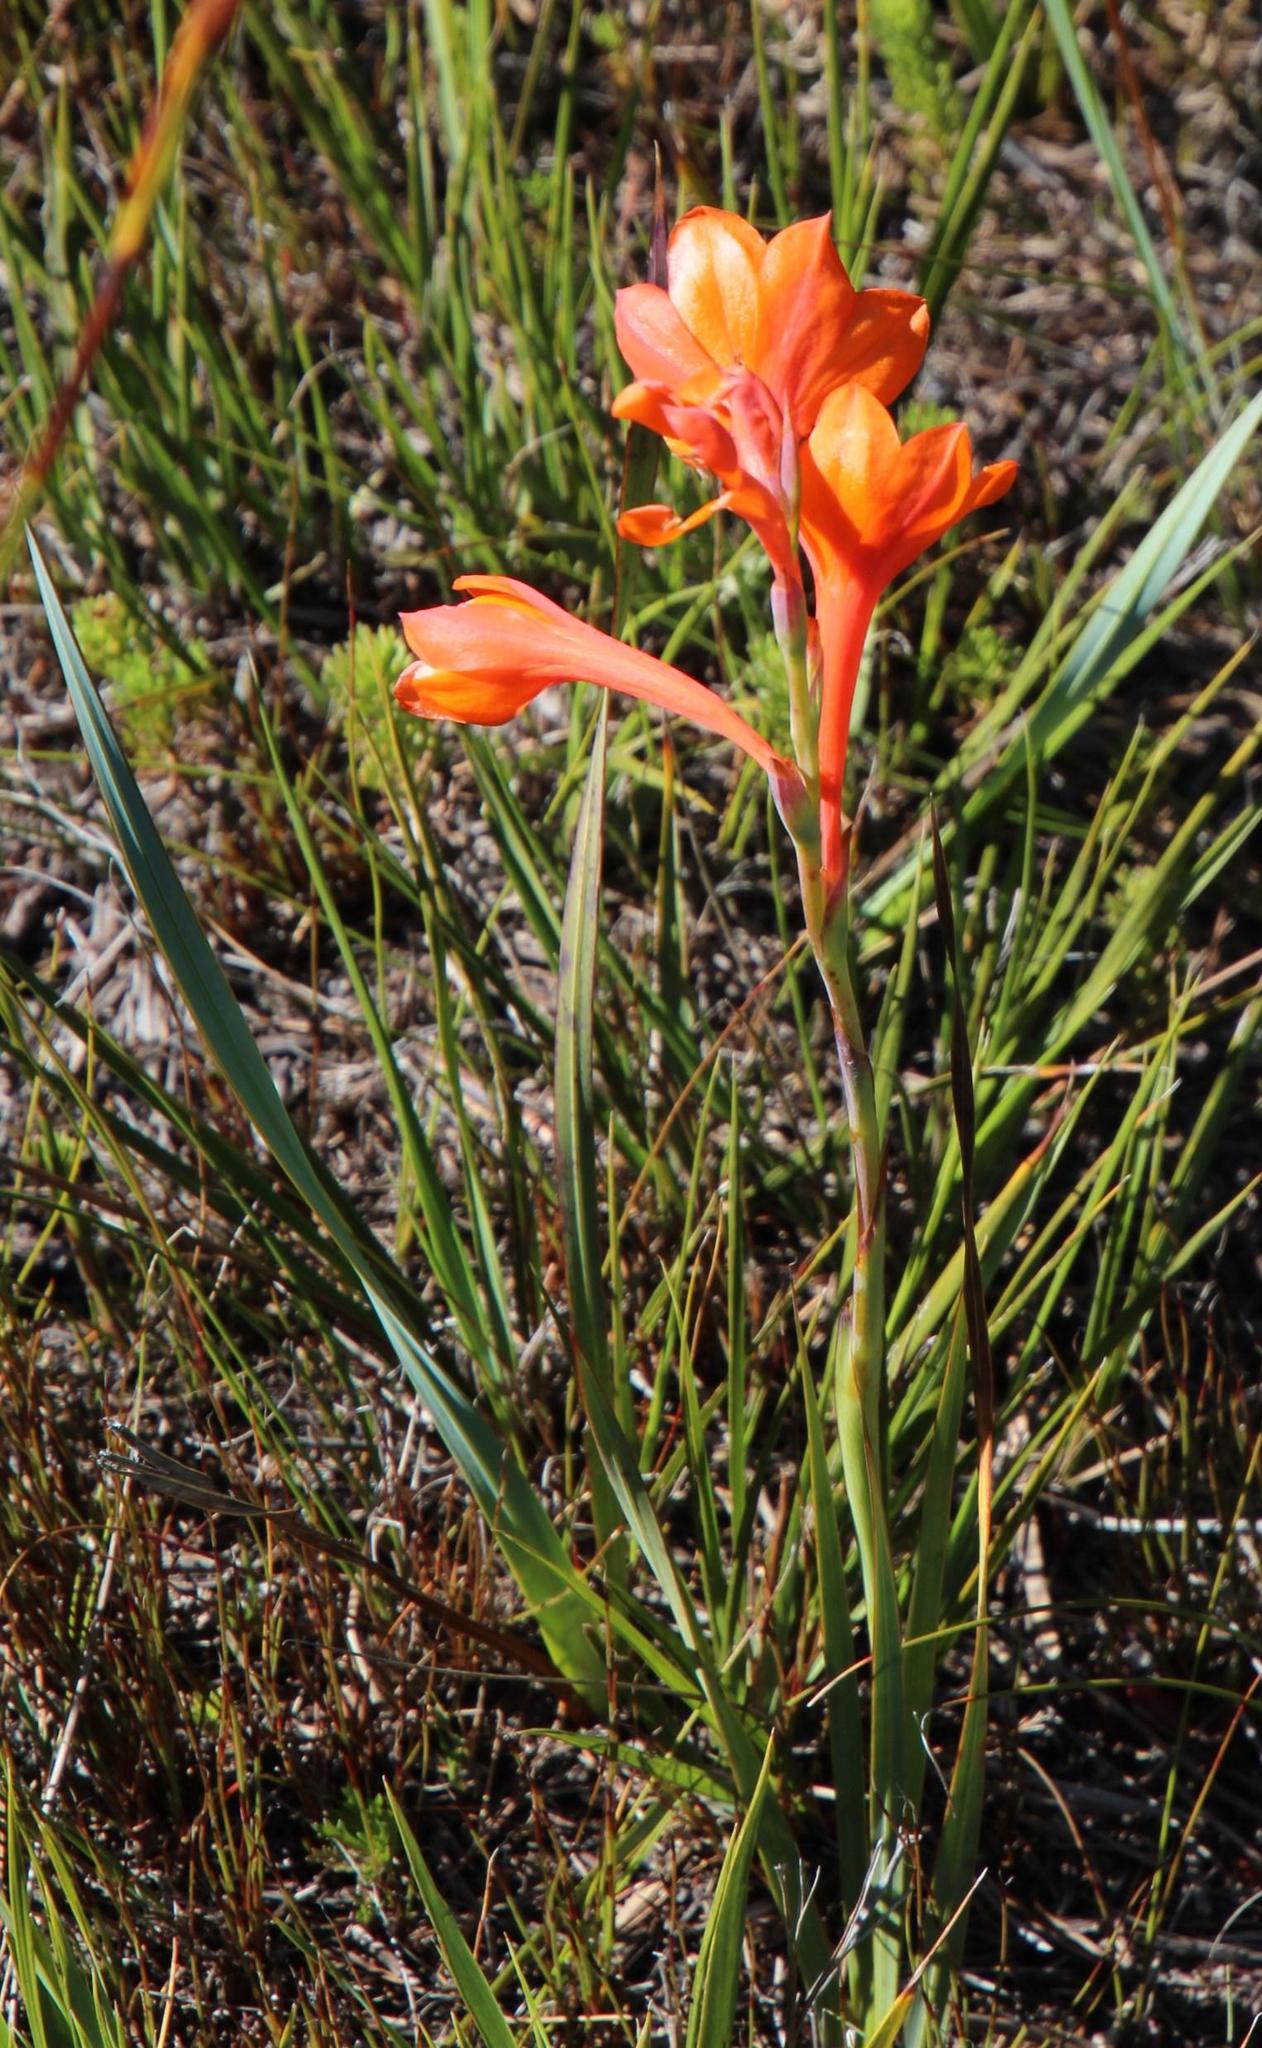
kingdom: Plantae
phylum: Tracheophyta
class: Liliopsida
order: Asparagales
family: Iridaceae
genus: Watsonia
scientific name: Watsonia schlechteri
